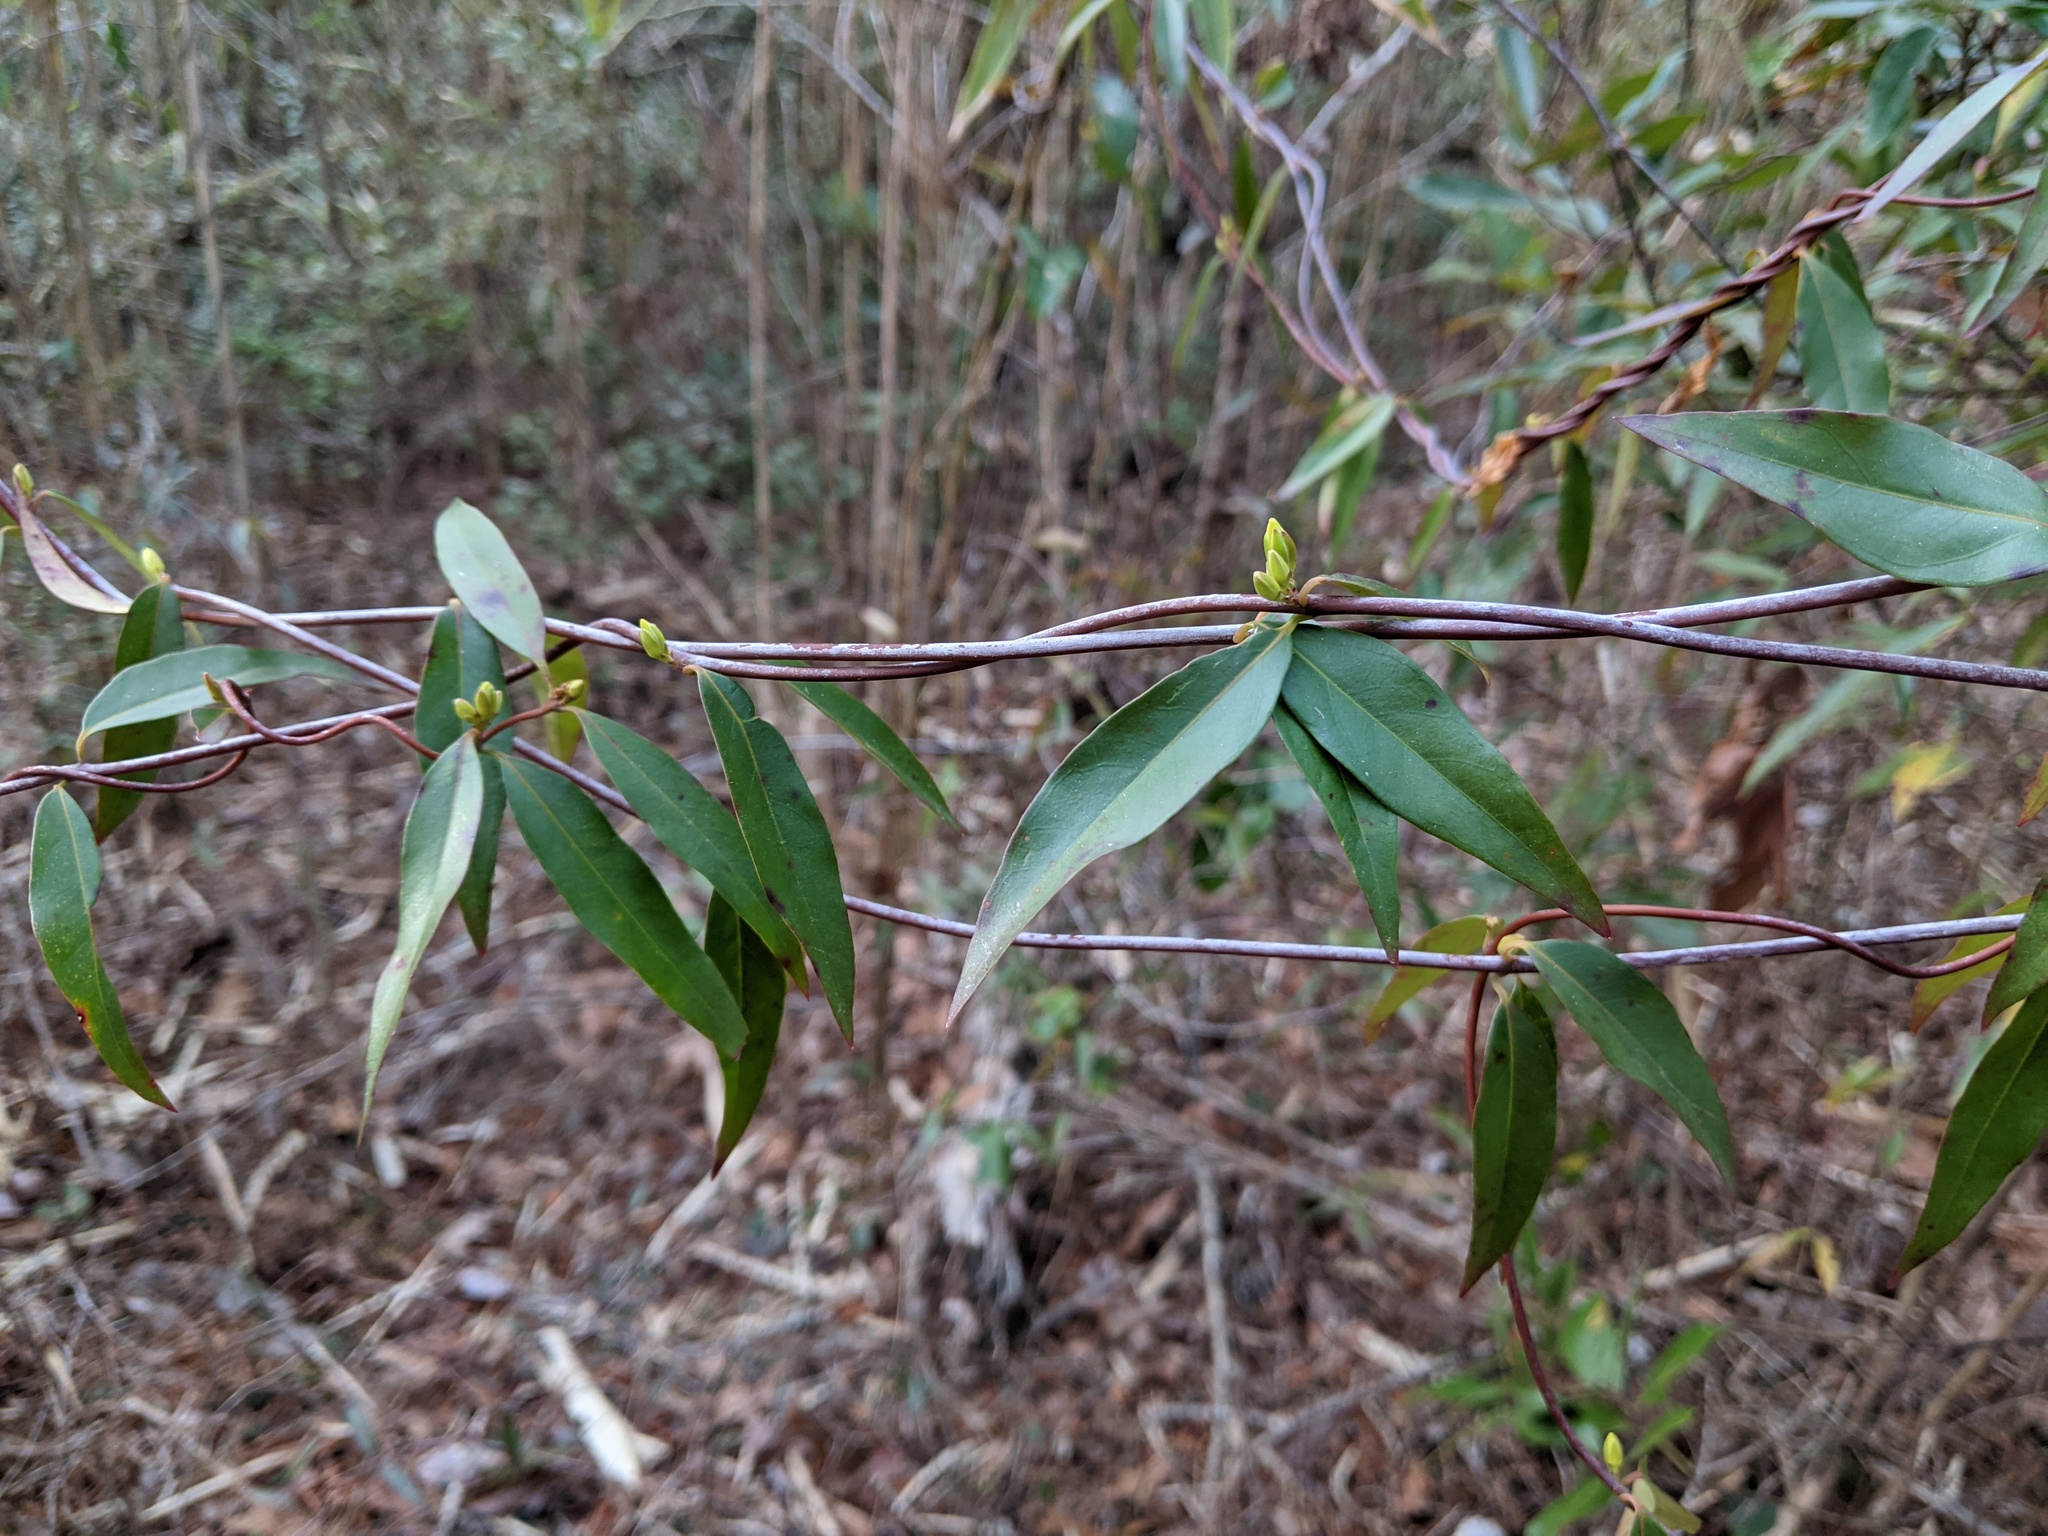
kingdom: Plantae
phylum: Tracheophyta
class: Magnoliopsida
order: Gentianales
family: Gelsemiaceae
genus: Gelsemium
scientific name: Gelsemium sempervirens
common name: Carolina-jasmine
